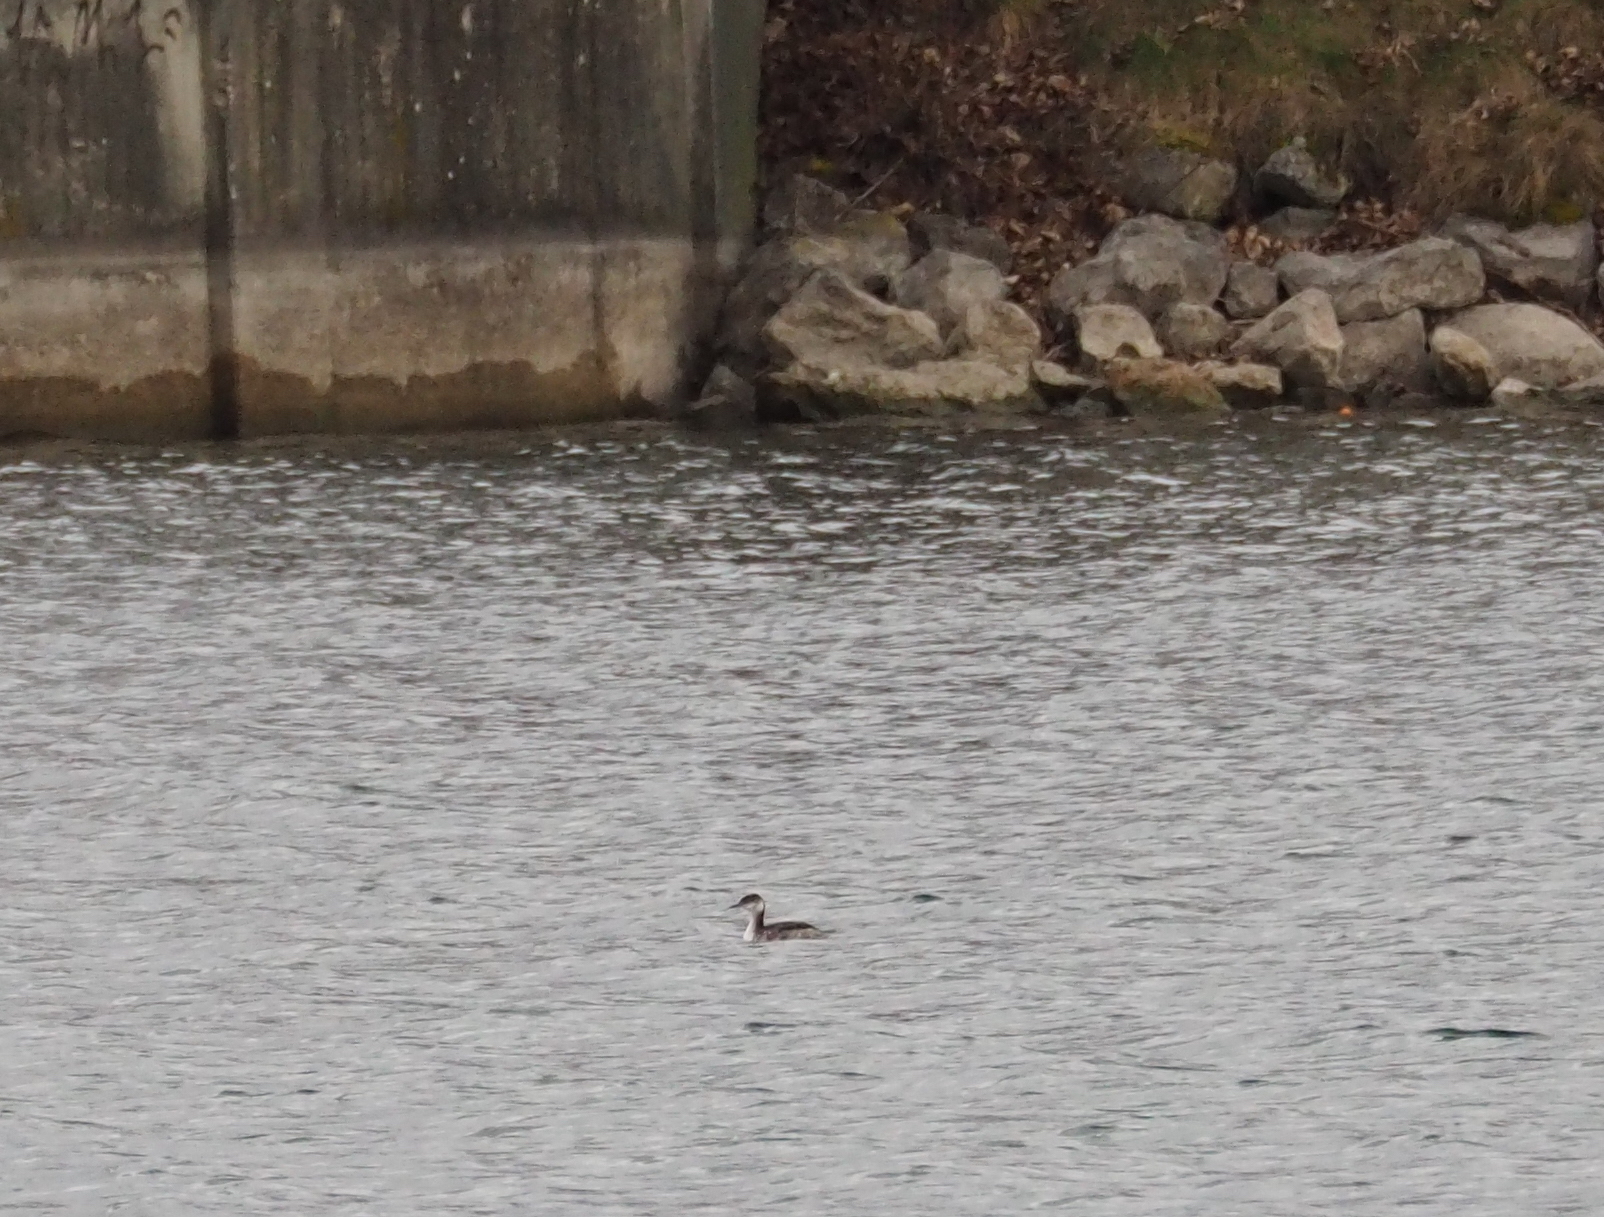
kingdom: Animalia
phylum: Chordata
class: Aves
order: Podicipediformes
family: Podicipedidae
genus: Podiceps
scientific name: Podiceps auritus
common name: Horned grebe
